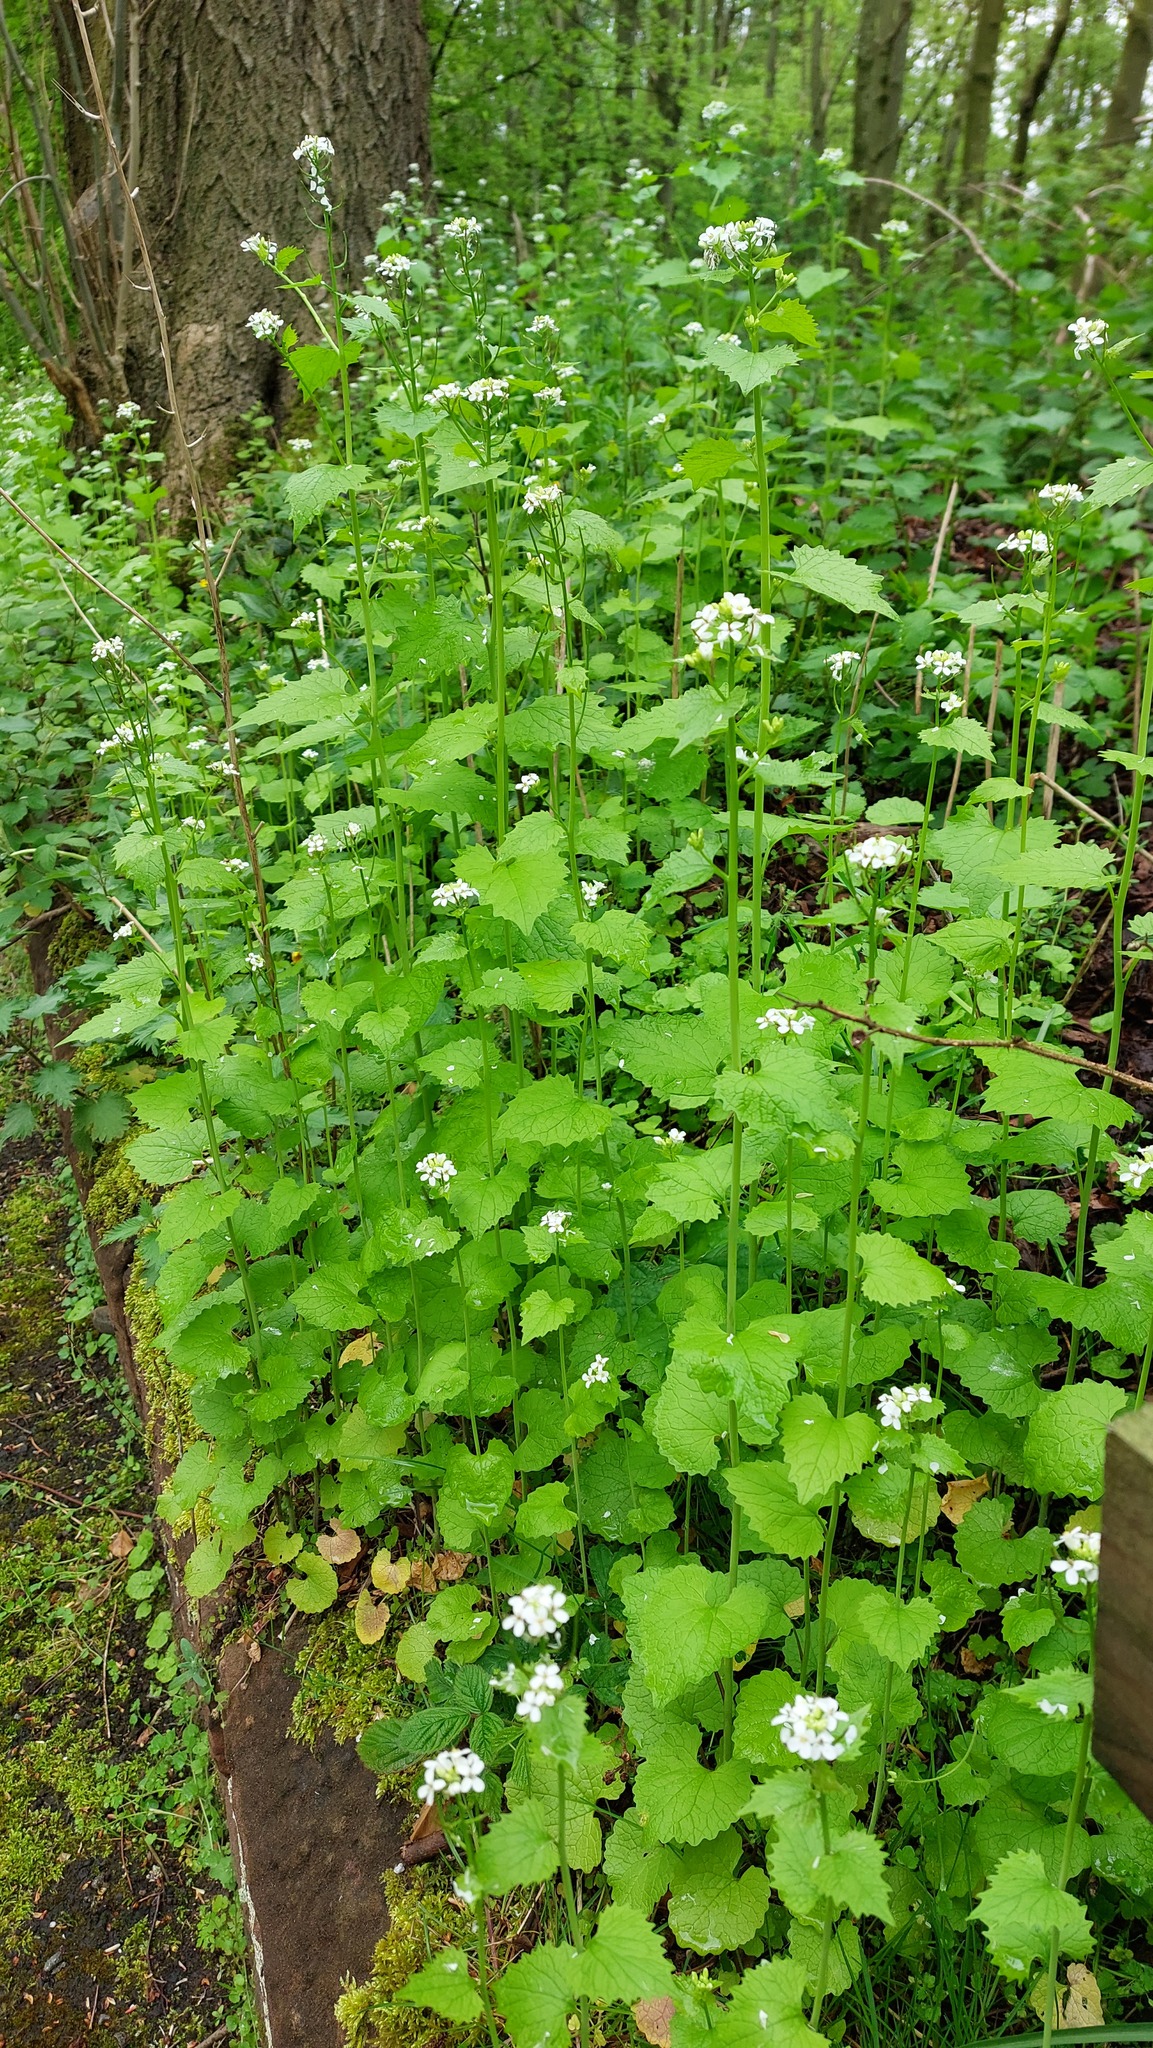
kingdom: Plantae
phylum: Tracheophyta
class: Magnoliopsida
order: Brassicales
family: Brassicaceae
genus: Alliaria
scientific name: Alliaria petiolata
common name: Garlic mustard
